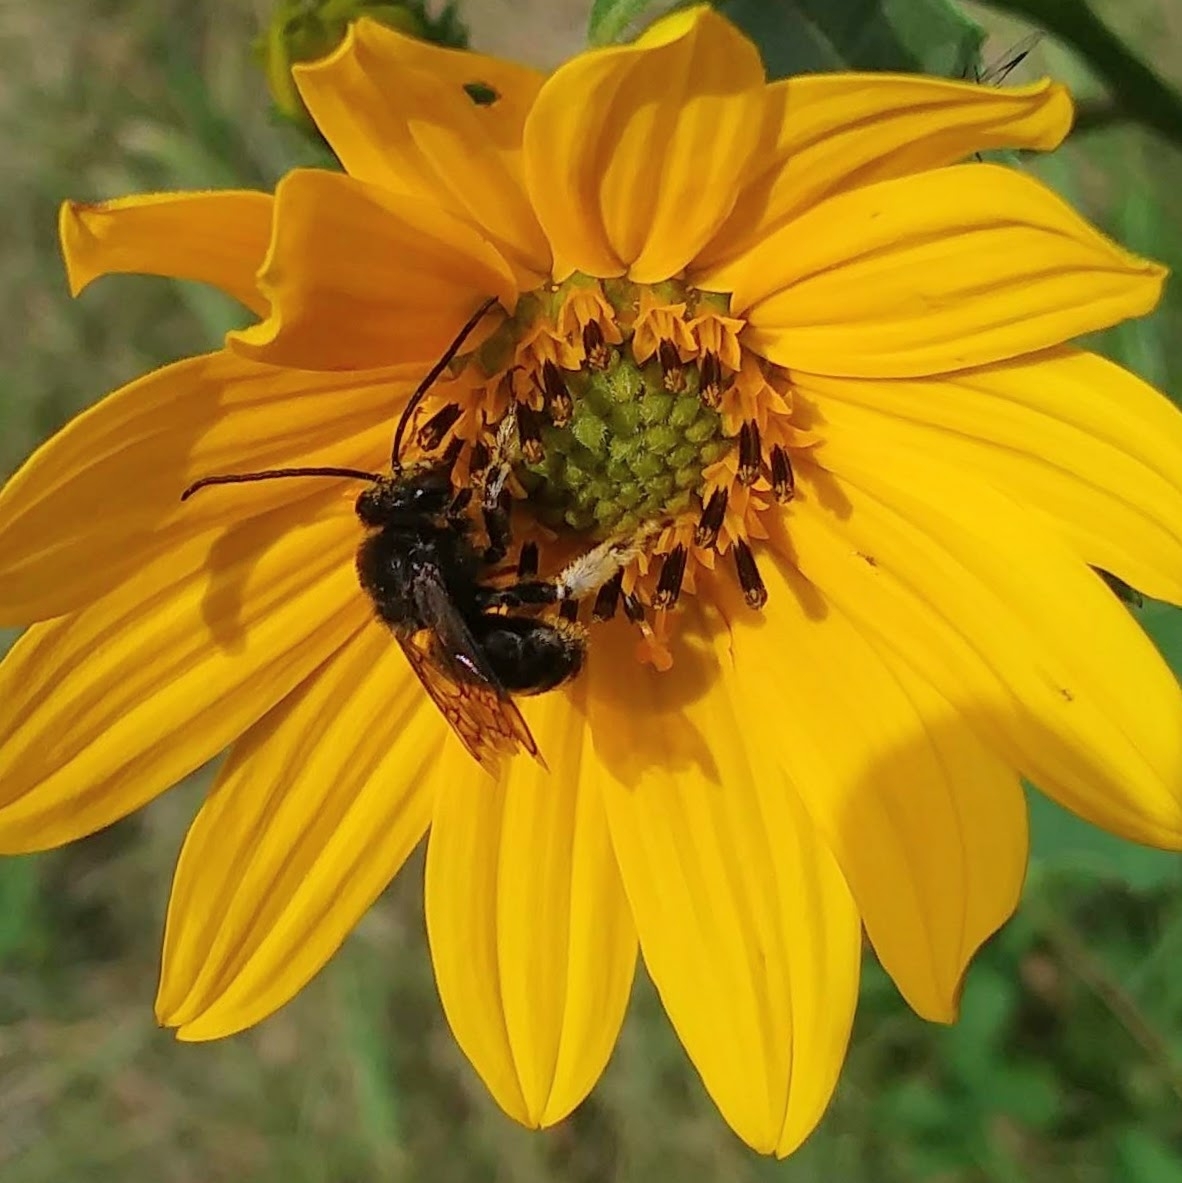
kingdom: Animalia
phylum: Arthropoda
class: Insecta
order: Hymenoptera
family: Apidae
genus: Melissodes
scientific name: Melissodes bimaculatus
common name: Two-spotted long-horned bee
